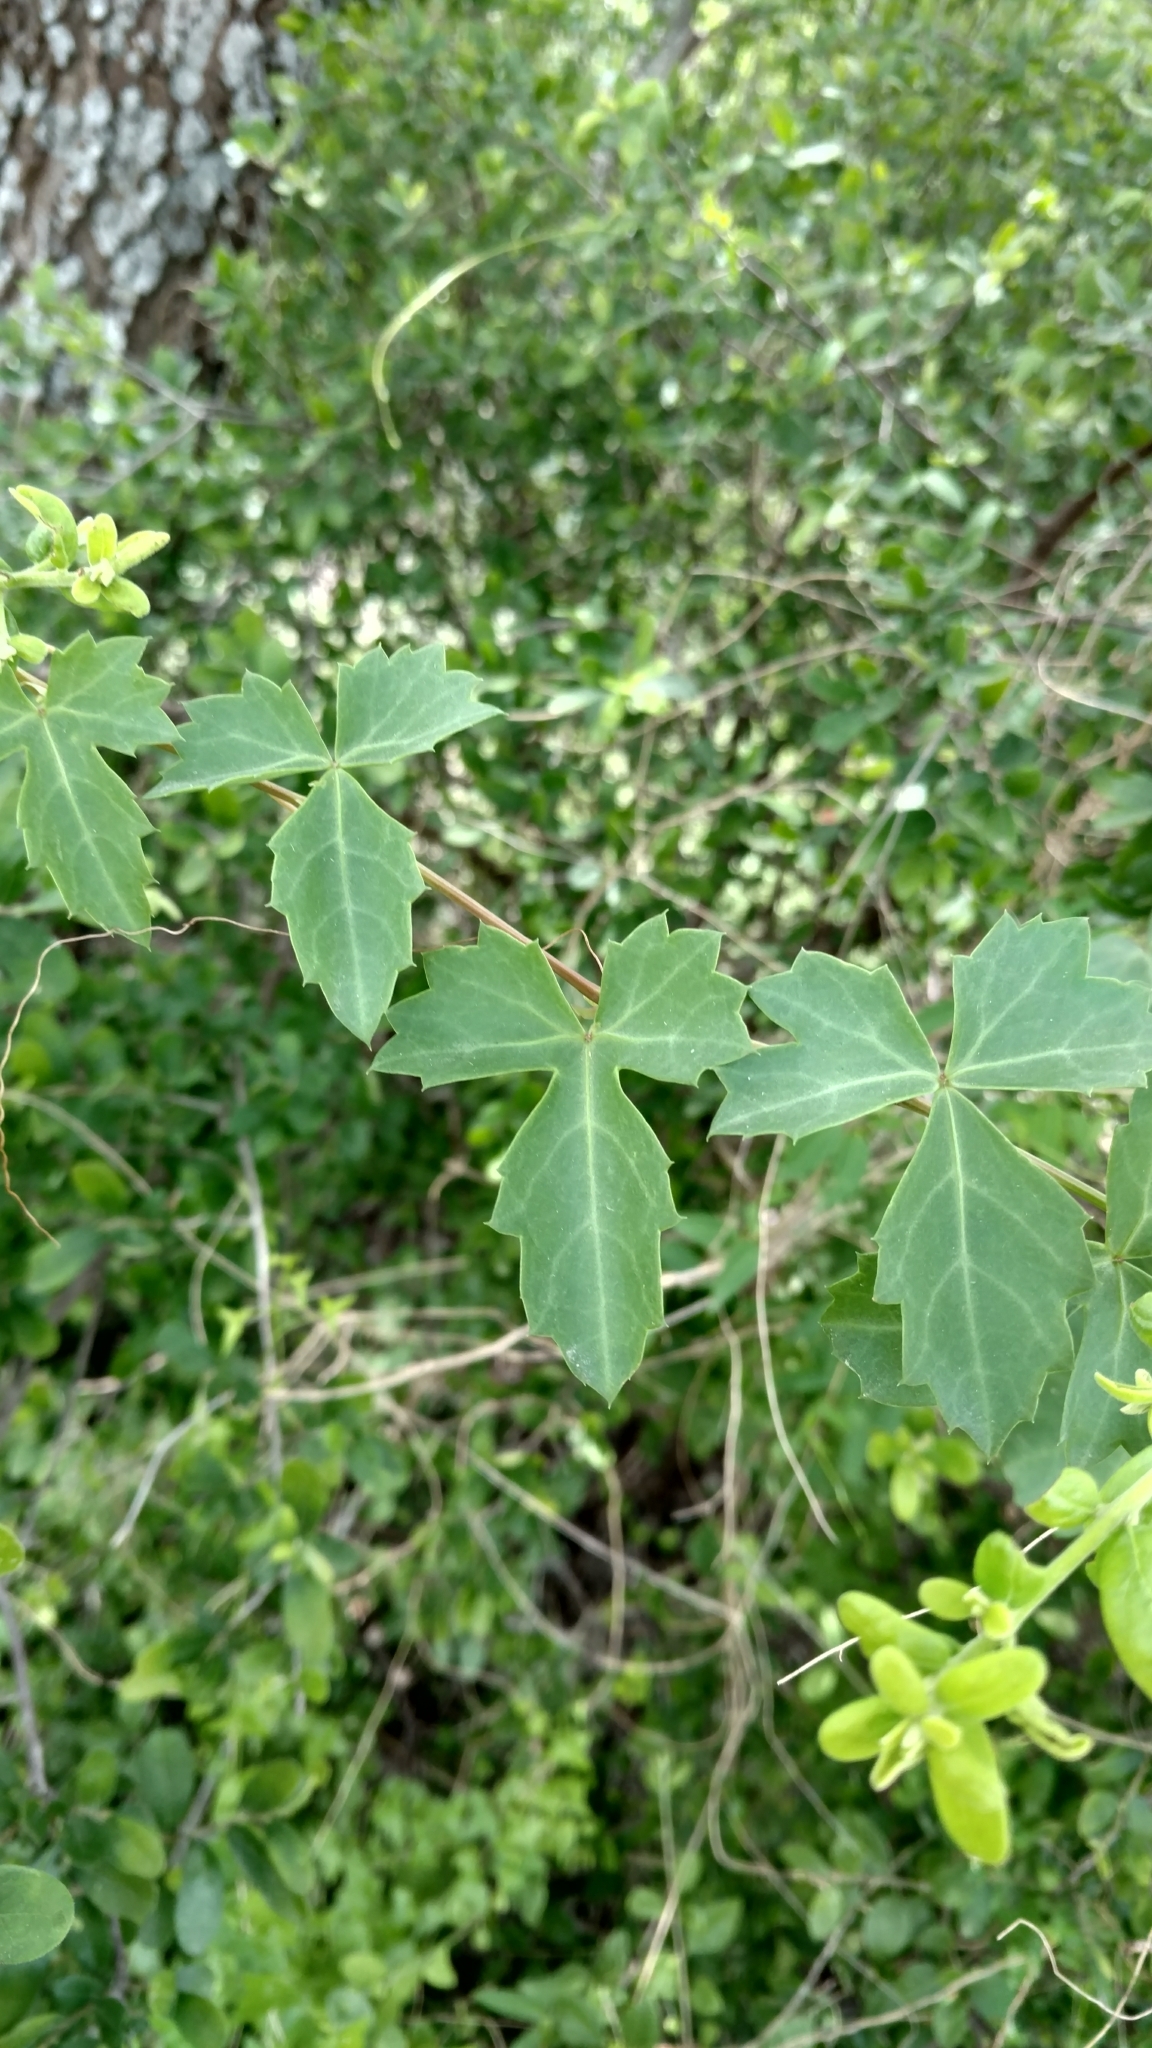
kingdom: Plantae
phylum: Tracheophyta
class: Magnoliopsida
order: Vitales
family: Vitaceae
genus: Cissus
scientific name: Cissus trifoliata
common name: Vine-sorrel
